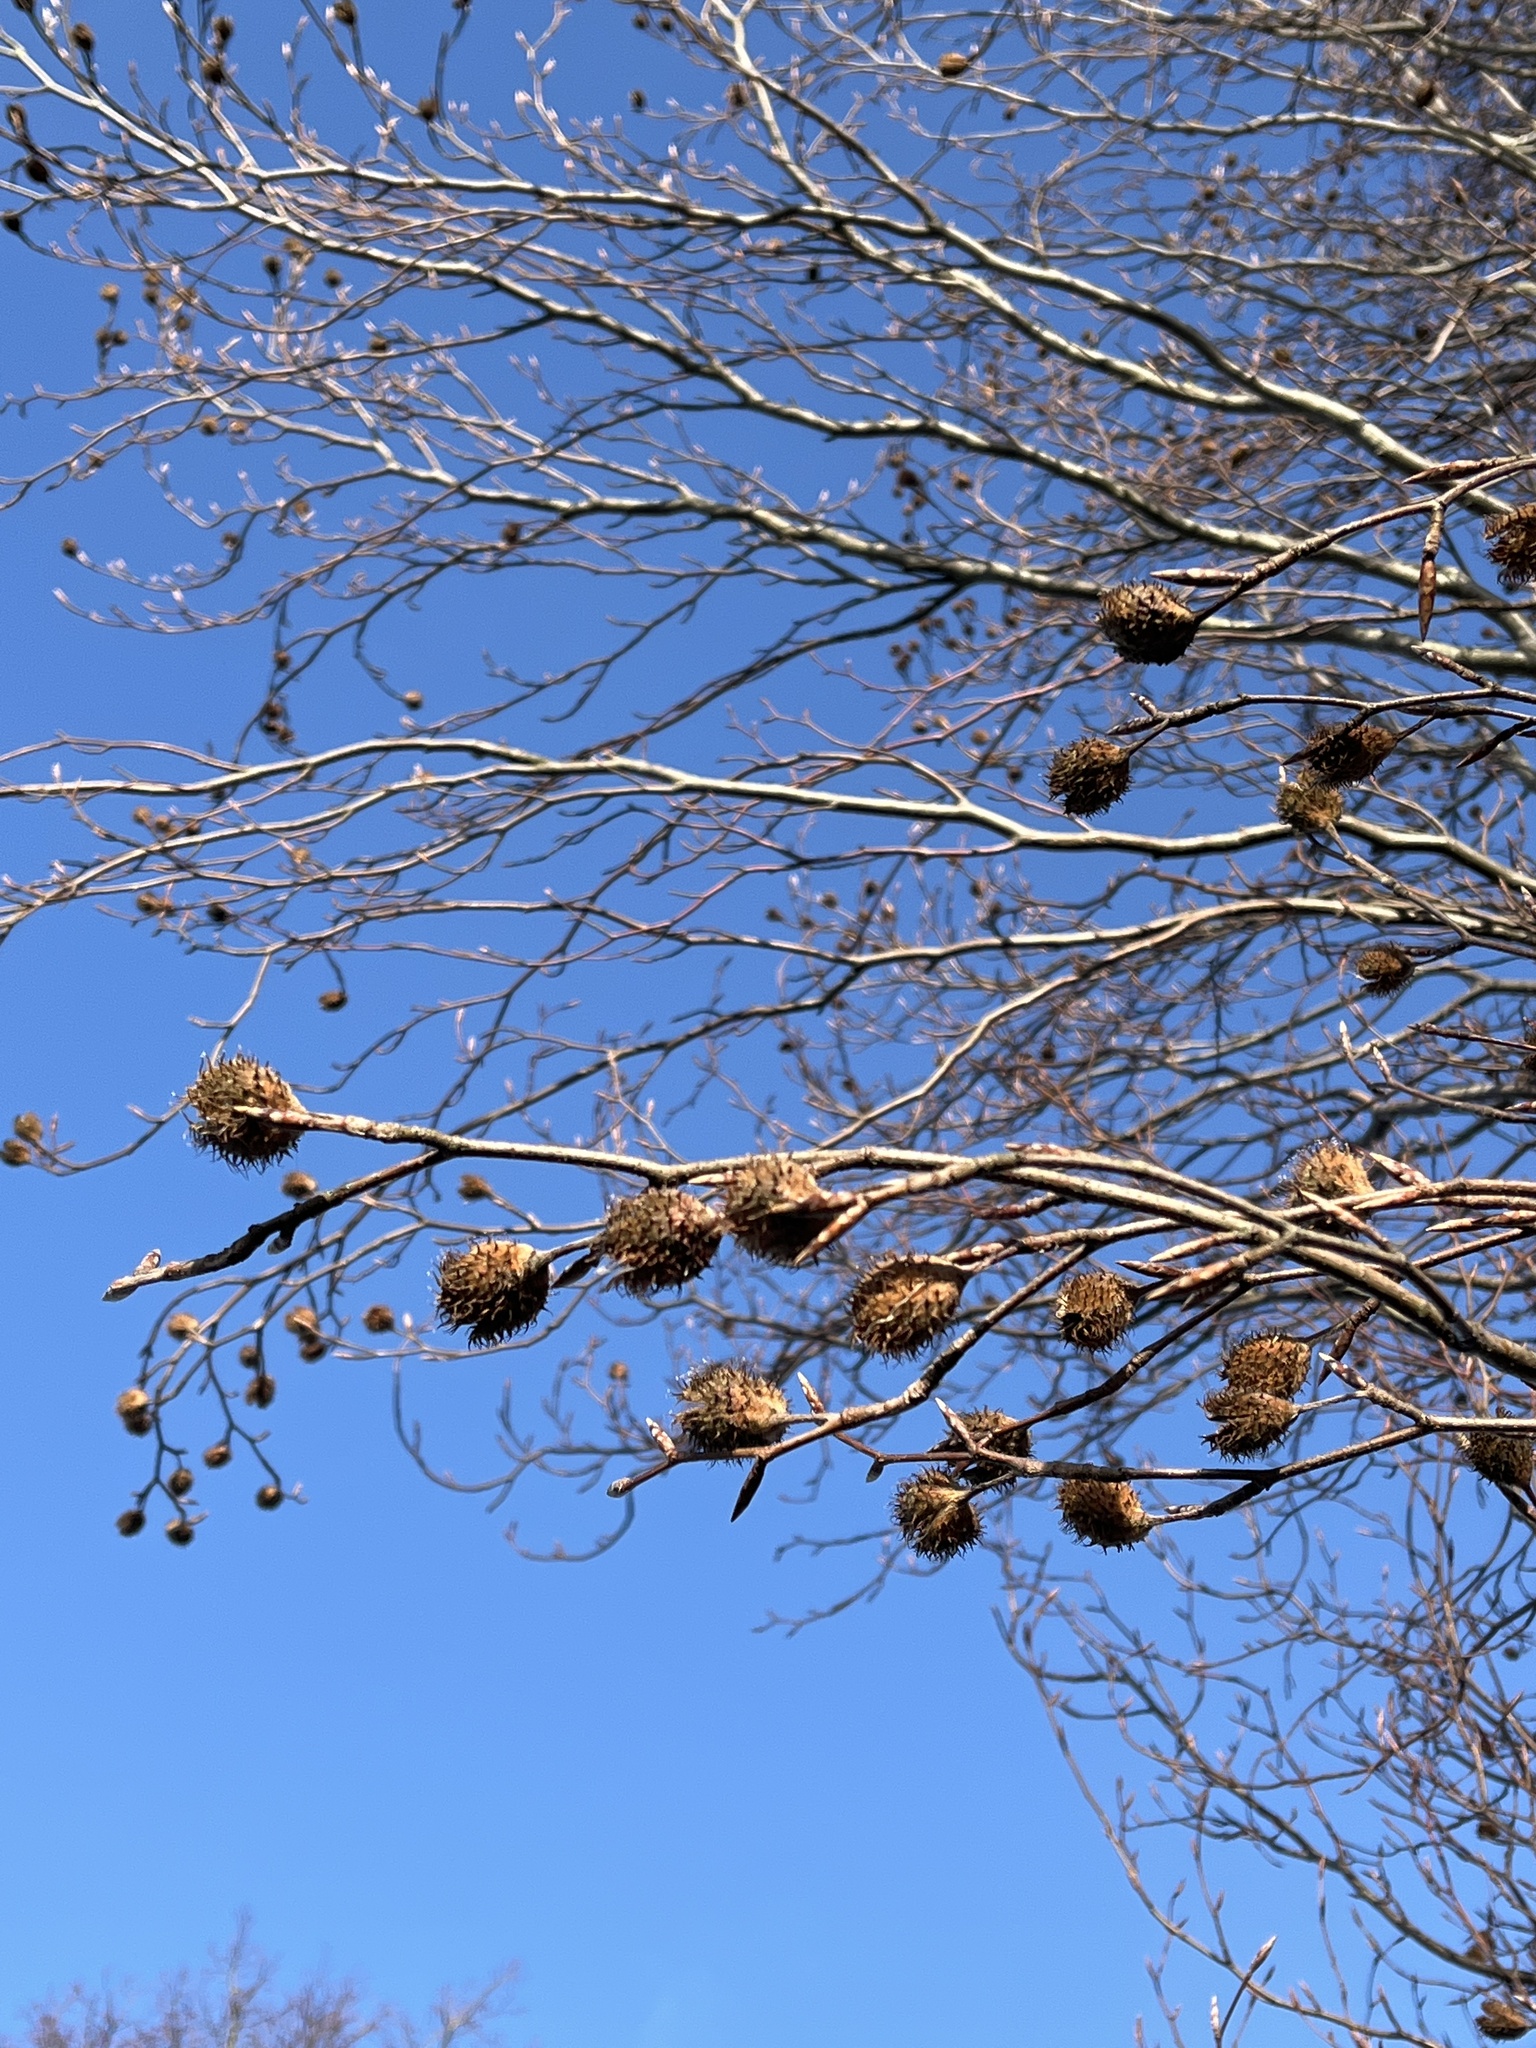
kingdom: Plantae
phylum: Tracheophyta
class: Magnoliopsida
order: Fagales
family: Fagaceae
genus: Fagus
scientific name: Fagus sylvatica
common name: Beech
